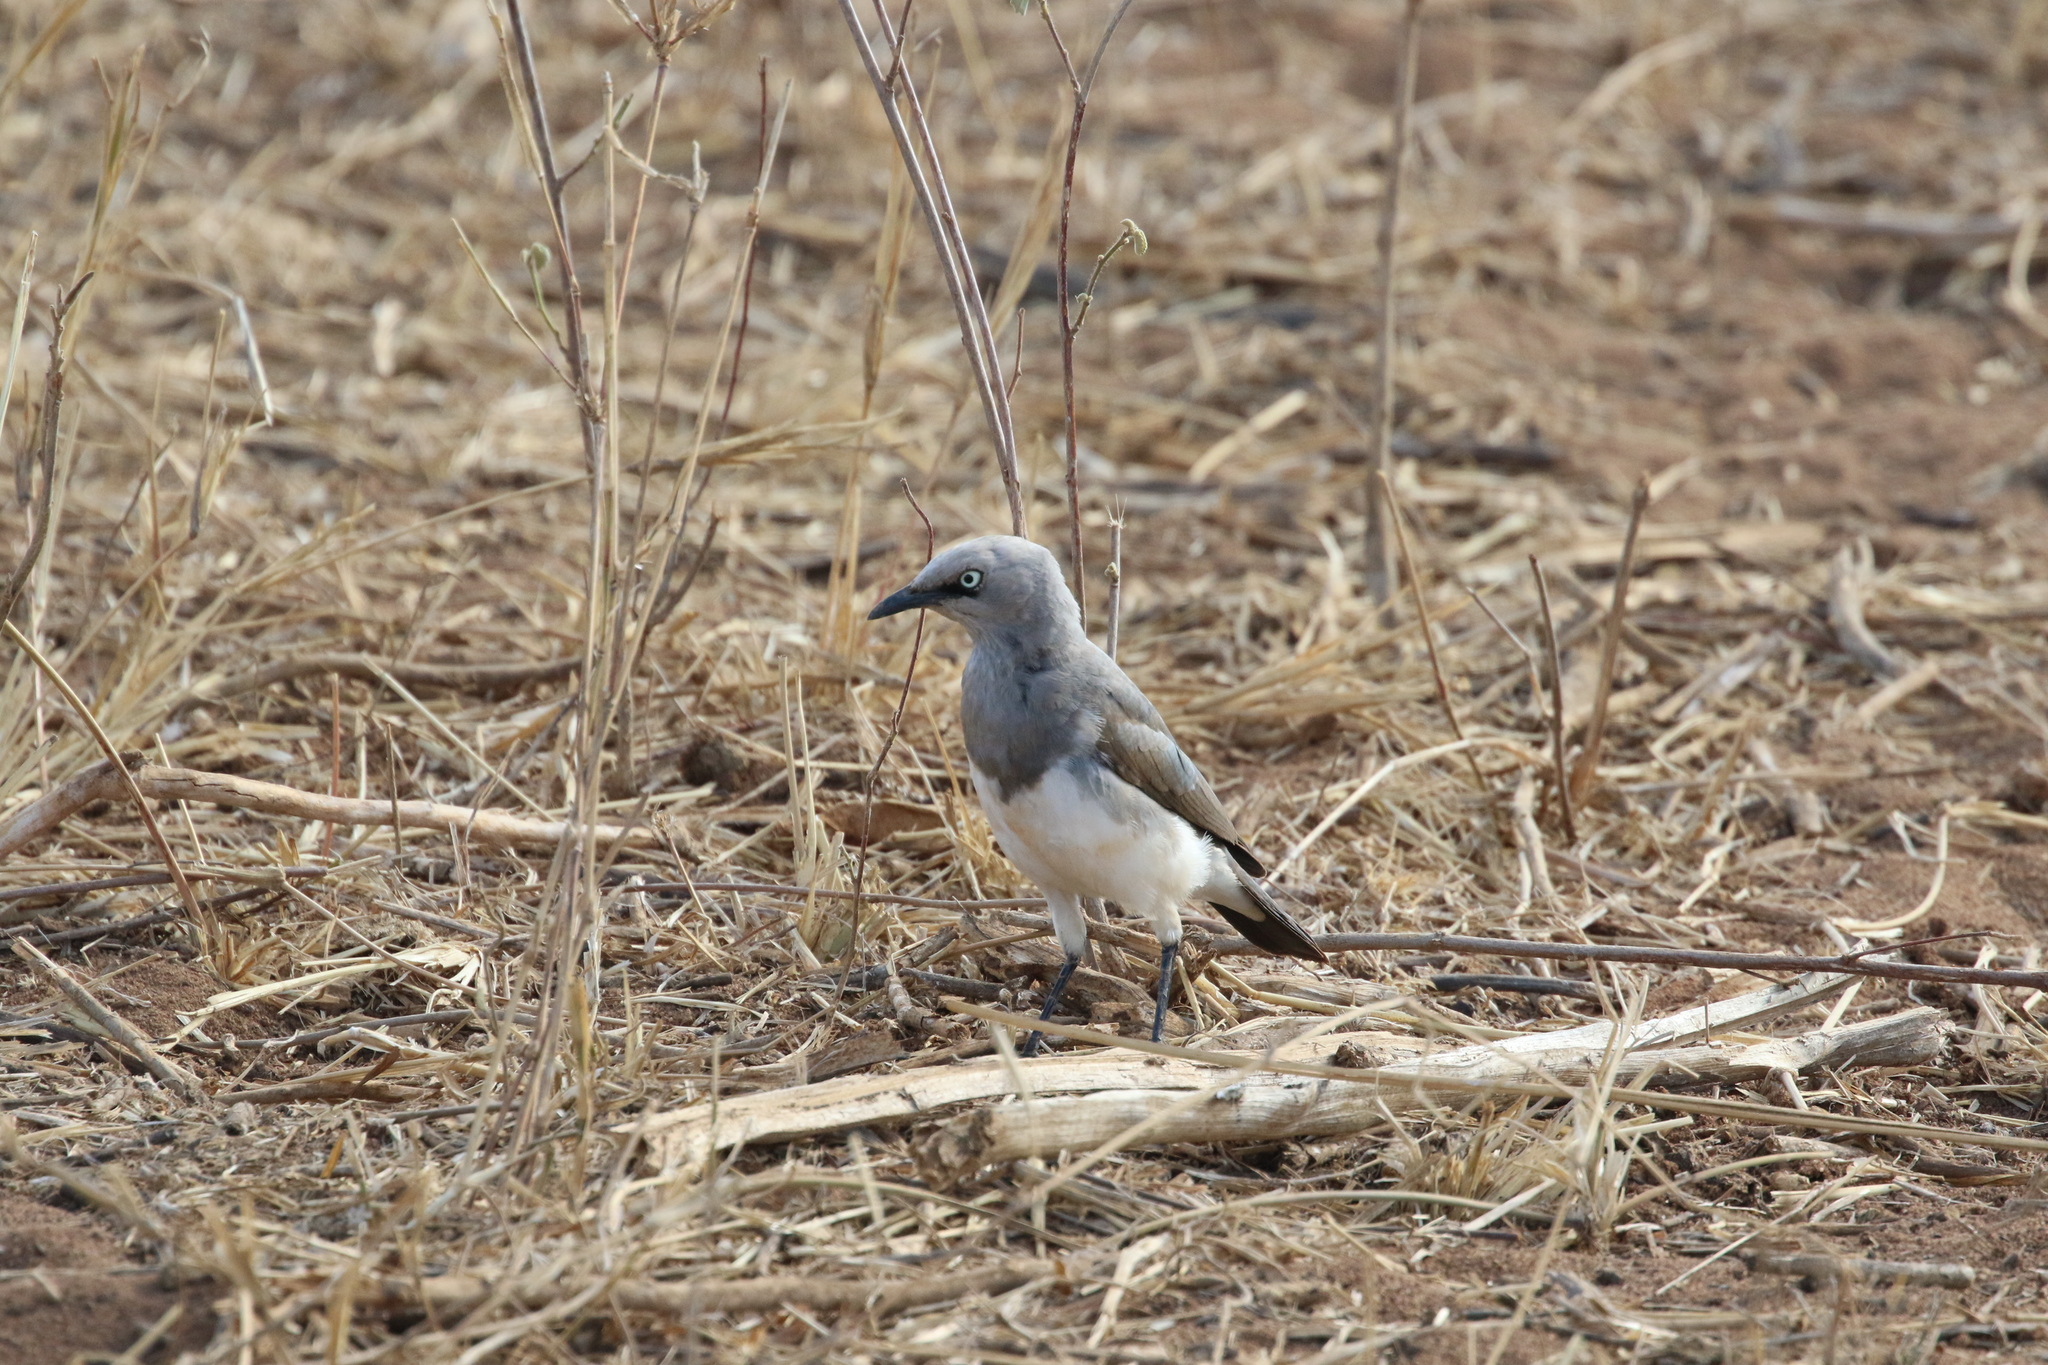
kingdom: Animalia
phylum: Chordata
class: Aves
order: Passeriformes
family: Sturnidae
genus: Lamprotornis
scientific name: Lamprotornis fischeri
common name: Fischer's starling
